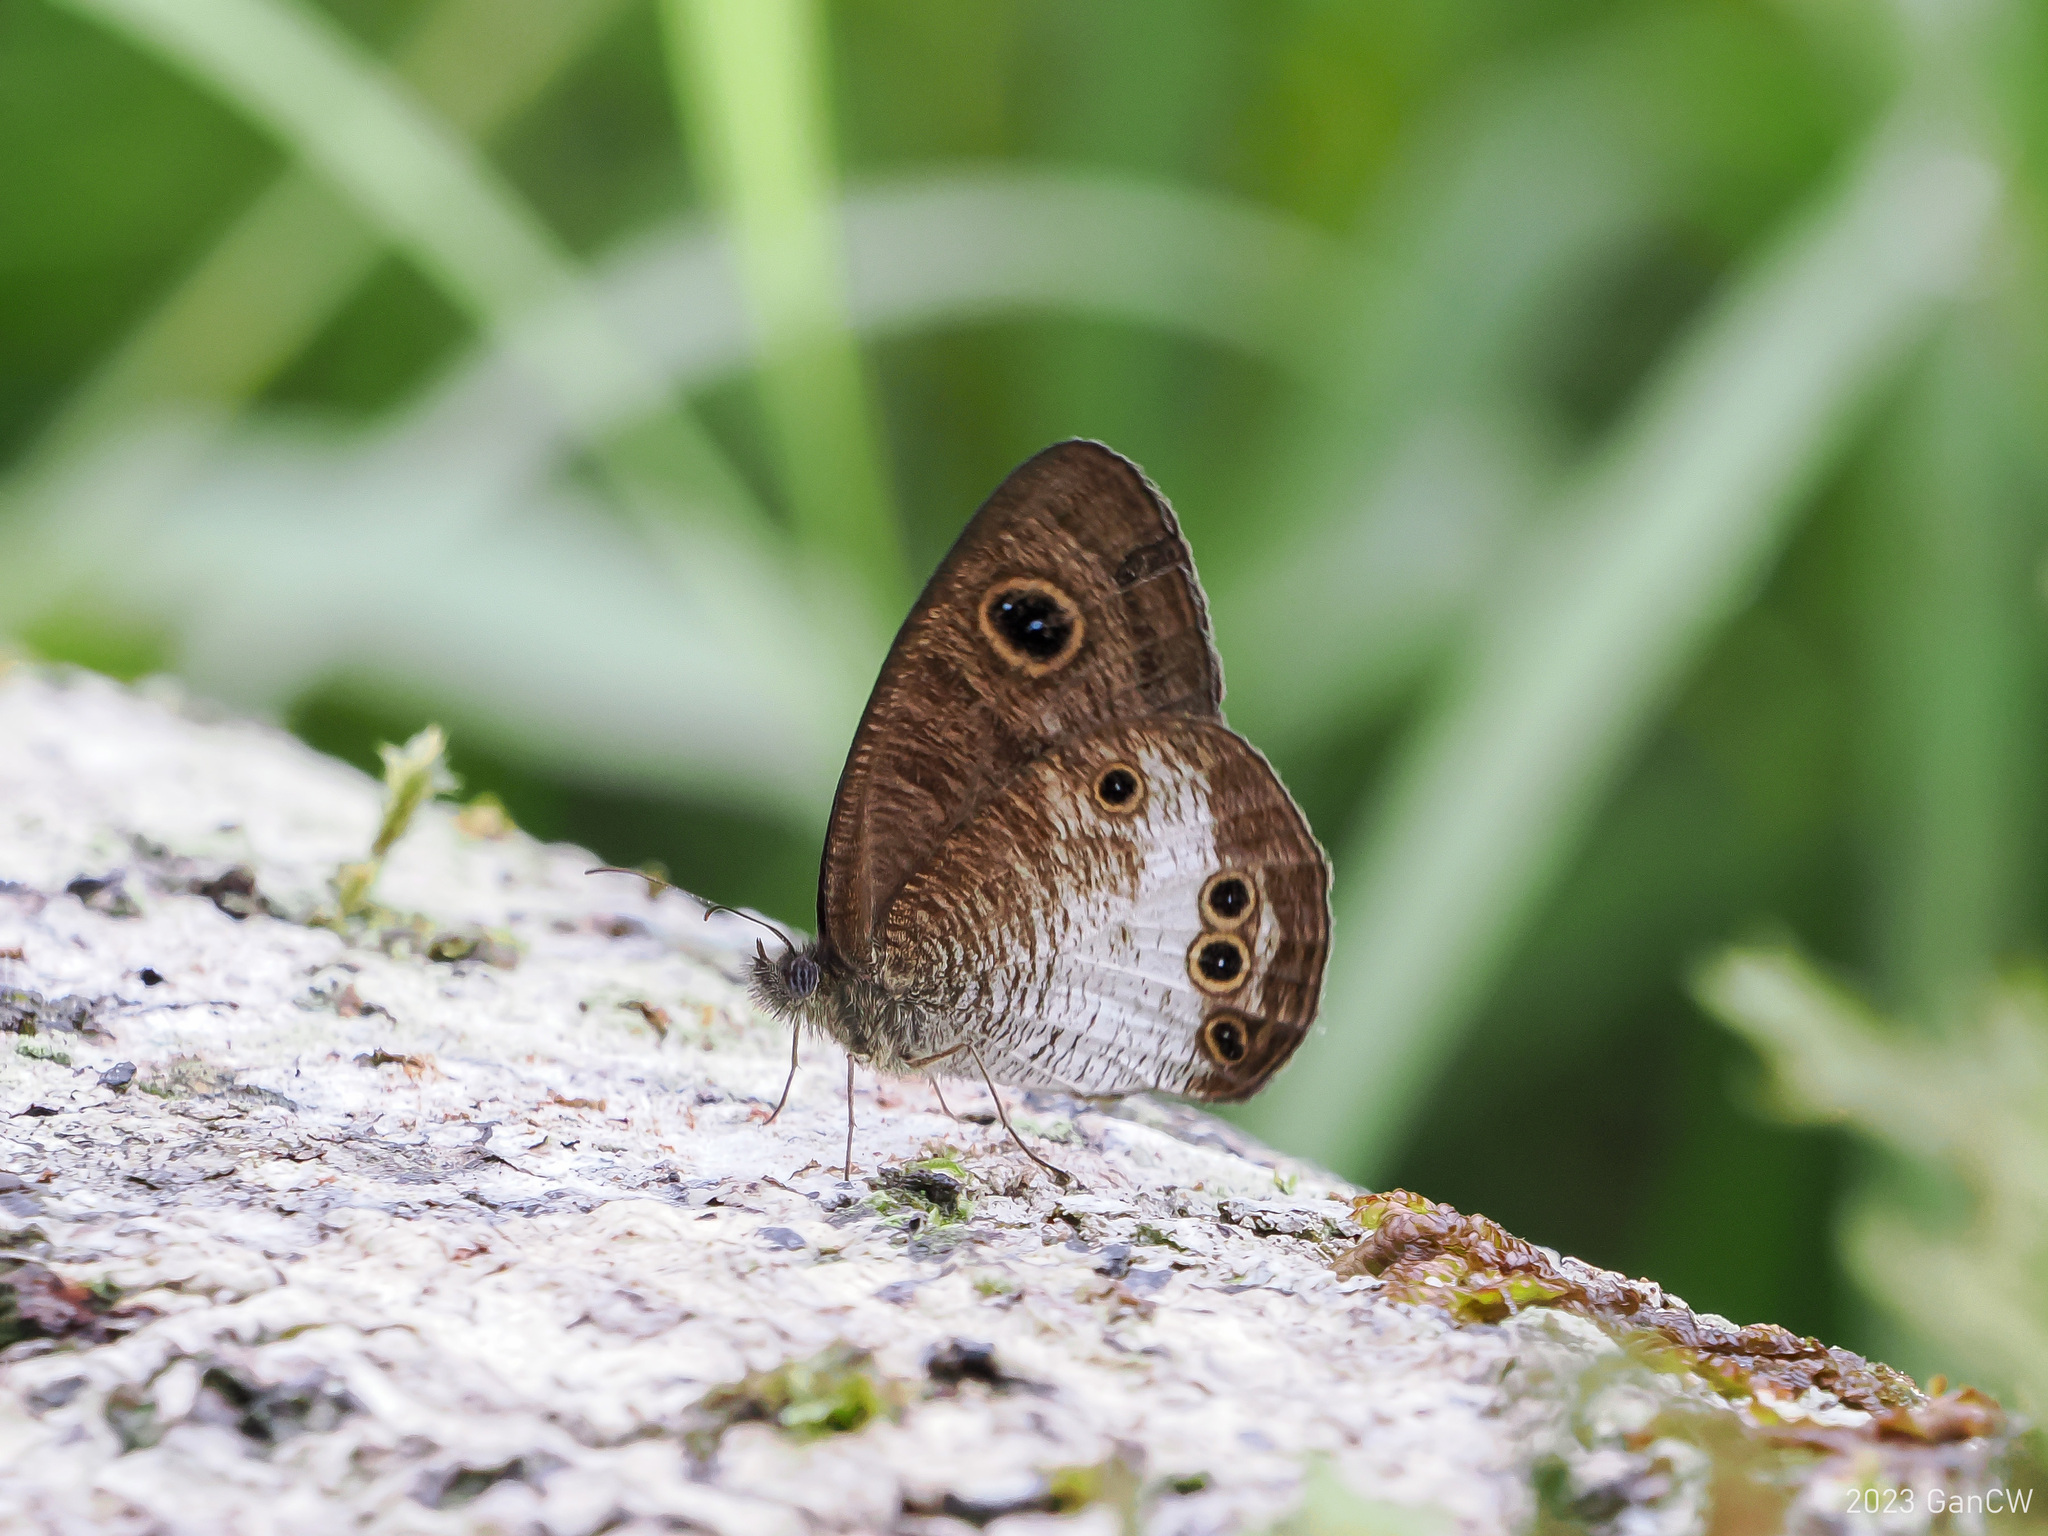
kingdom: Animalia
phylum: Arthropoda
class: Insecta
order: Lepidoptera
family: Nymphalidae
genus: Ypthima
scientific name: Ypthima gawalisi
